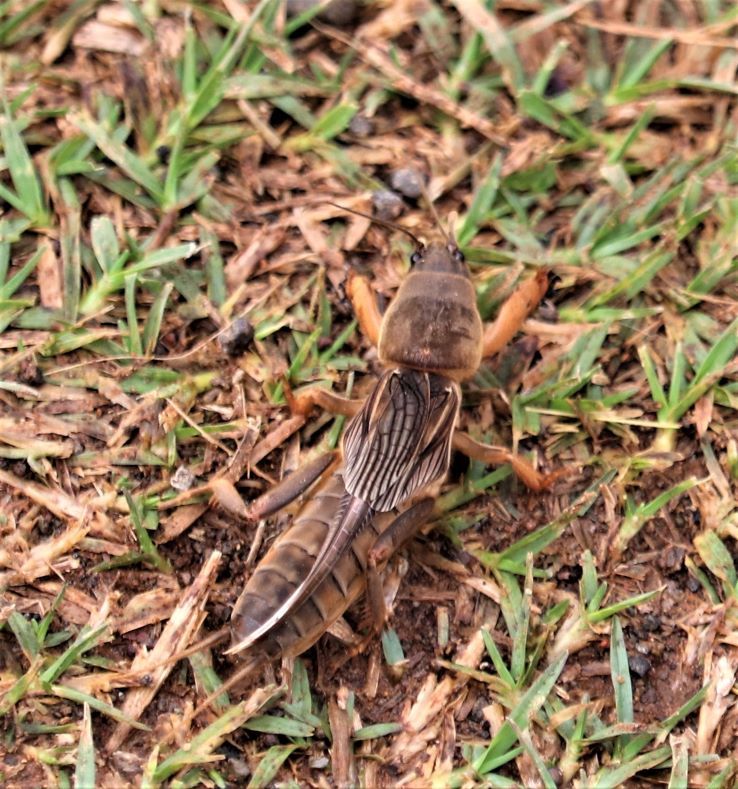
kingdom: Animalia
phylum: Arthropoda
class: Insecta
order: Orthoptera
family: Gryllotalpidae
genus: Gryllotalpa
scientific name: Gryllotalpa africana
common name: African mole cricket
